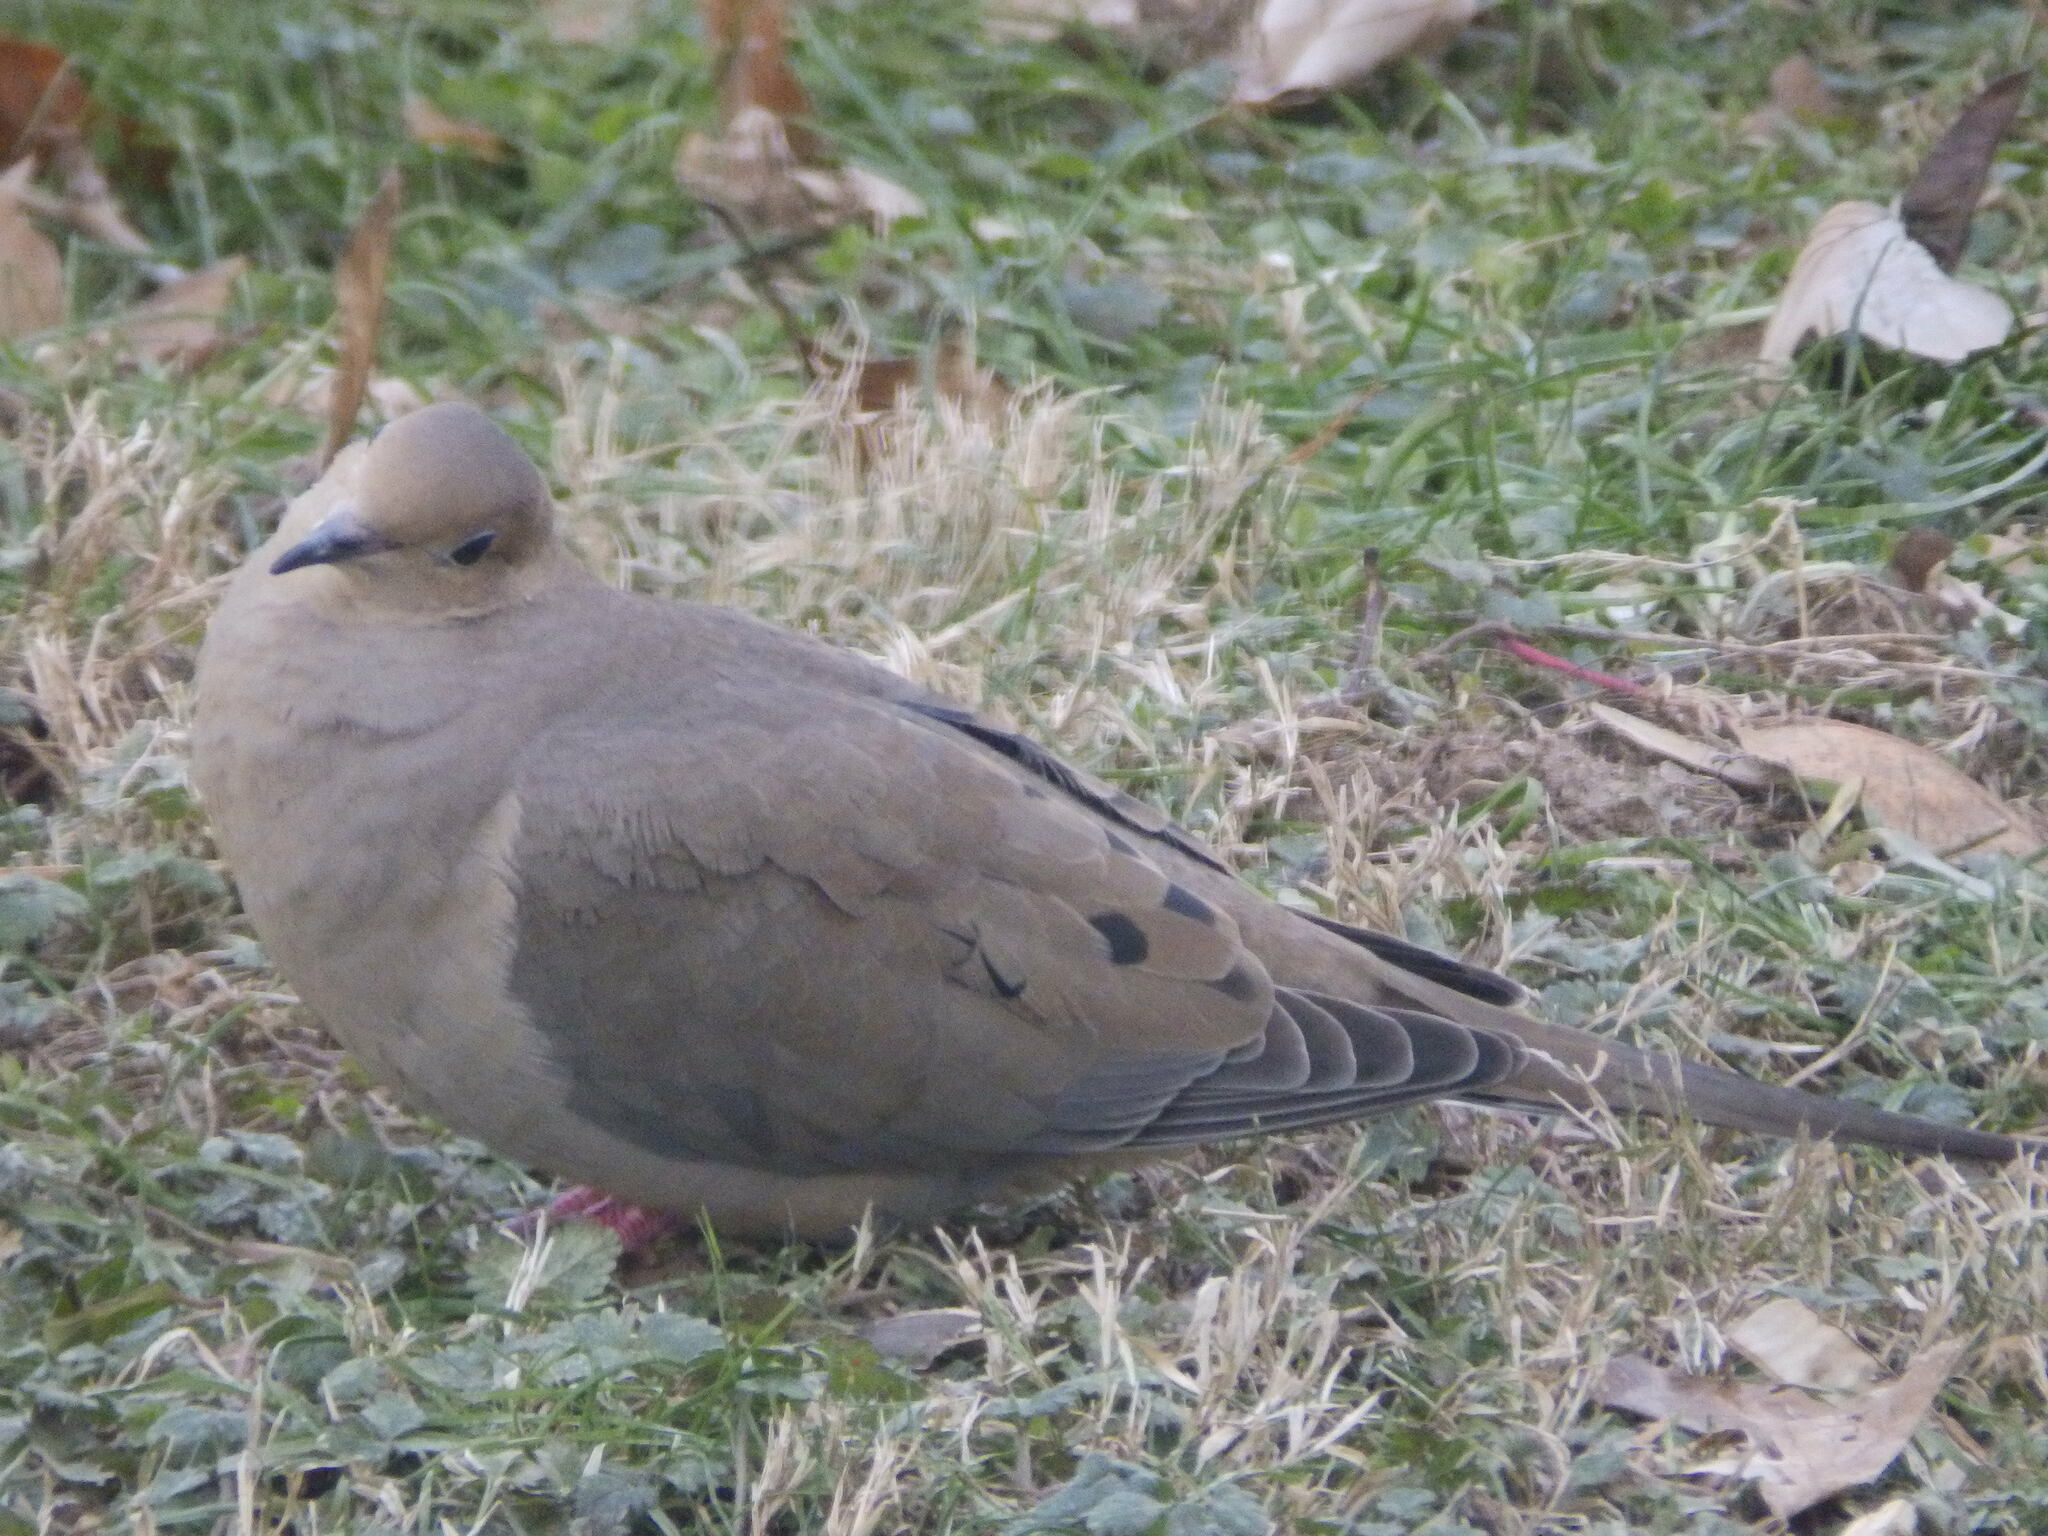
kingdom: Animalia
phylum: Chordata
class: Aves
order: Columbiformes
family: Columbidae
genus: Zenaida
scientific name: Zenaida macroura
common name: Mourning dove
